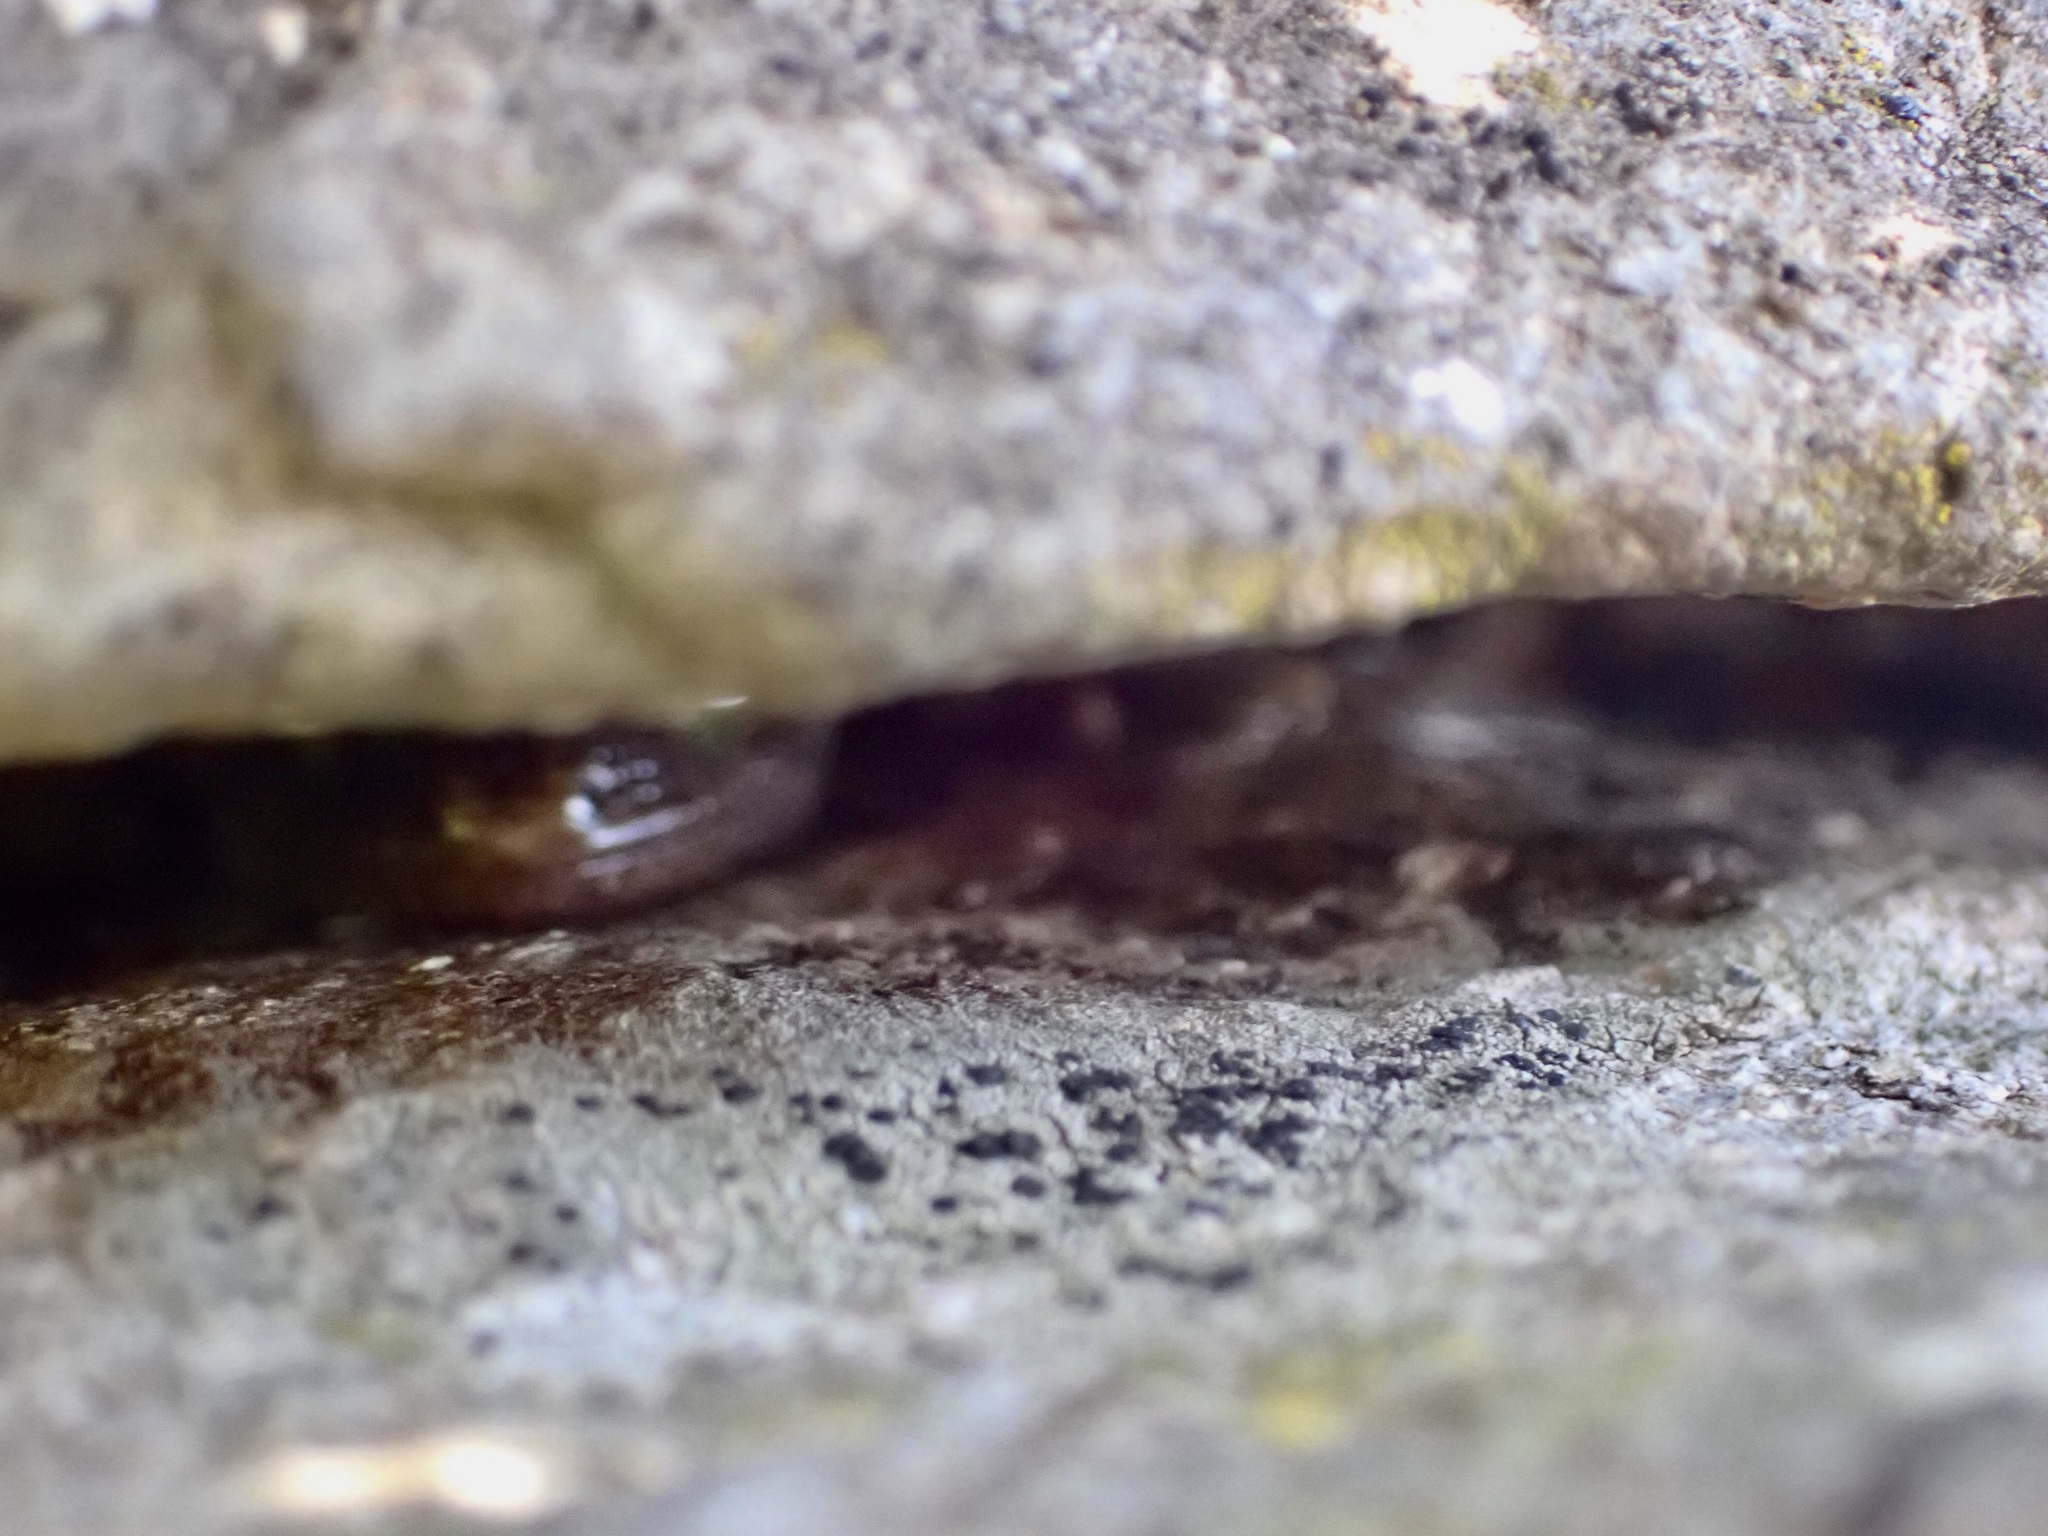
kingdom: Animalia
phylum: Chordata
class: Squamata
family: Diplodactylidae
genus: Woodworthia
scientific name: Woodworthia brunnea
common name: Canterbury gecko
